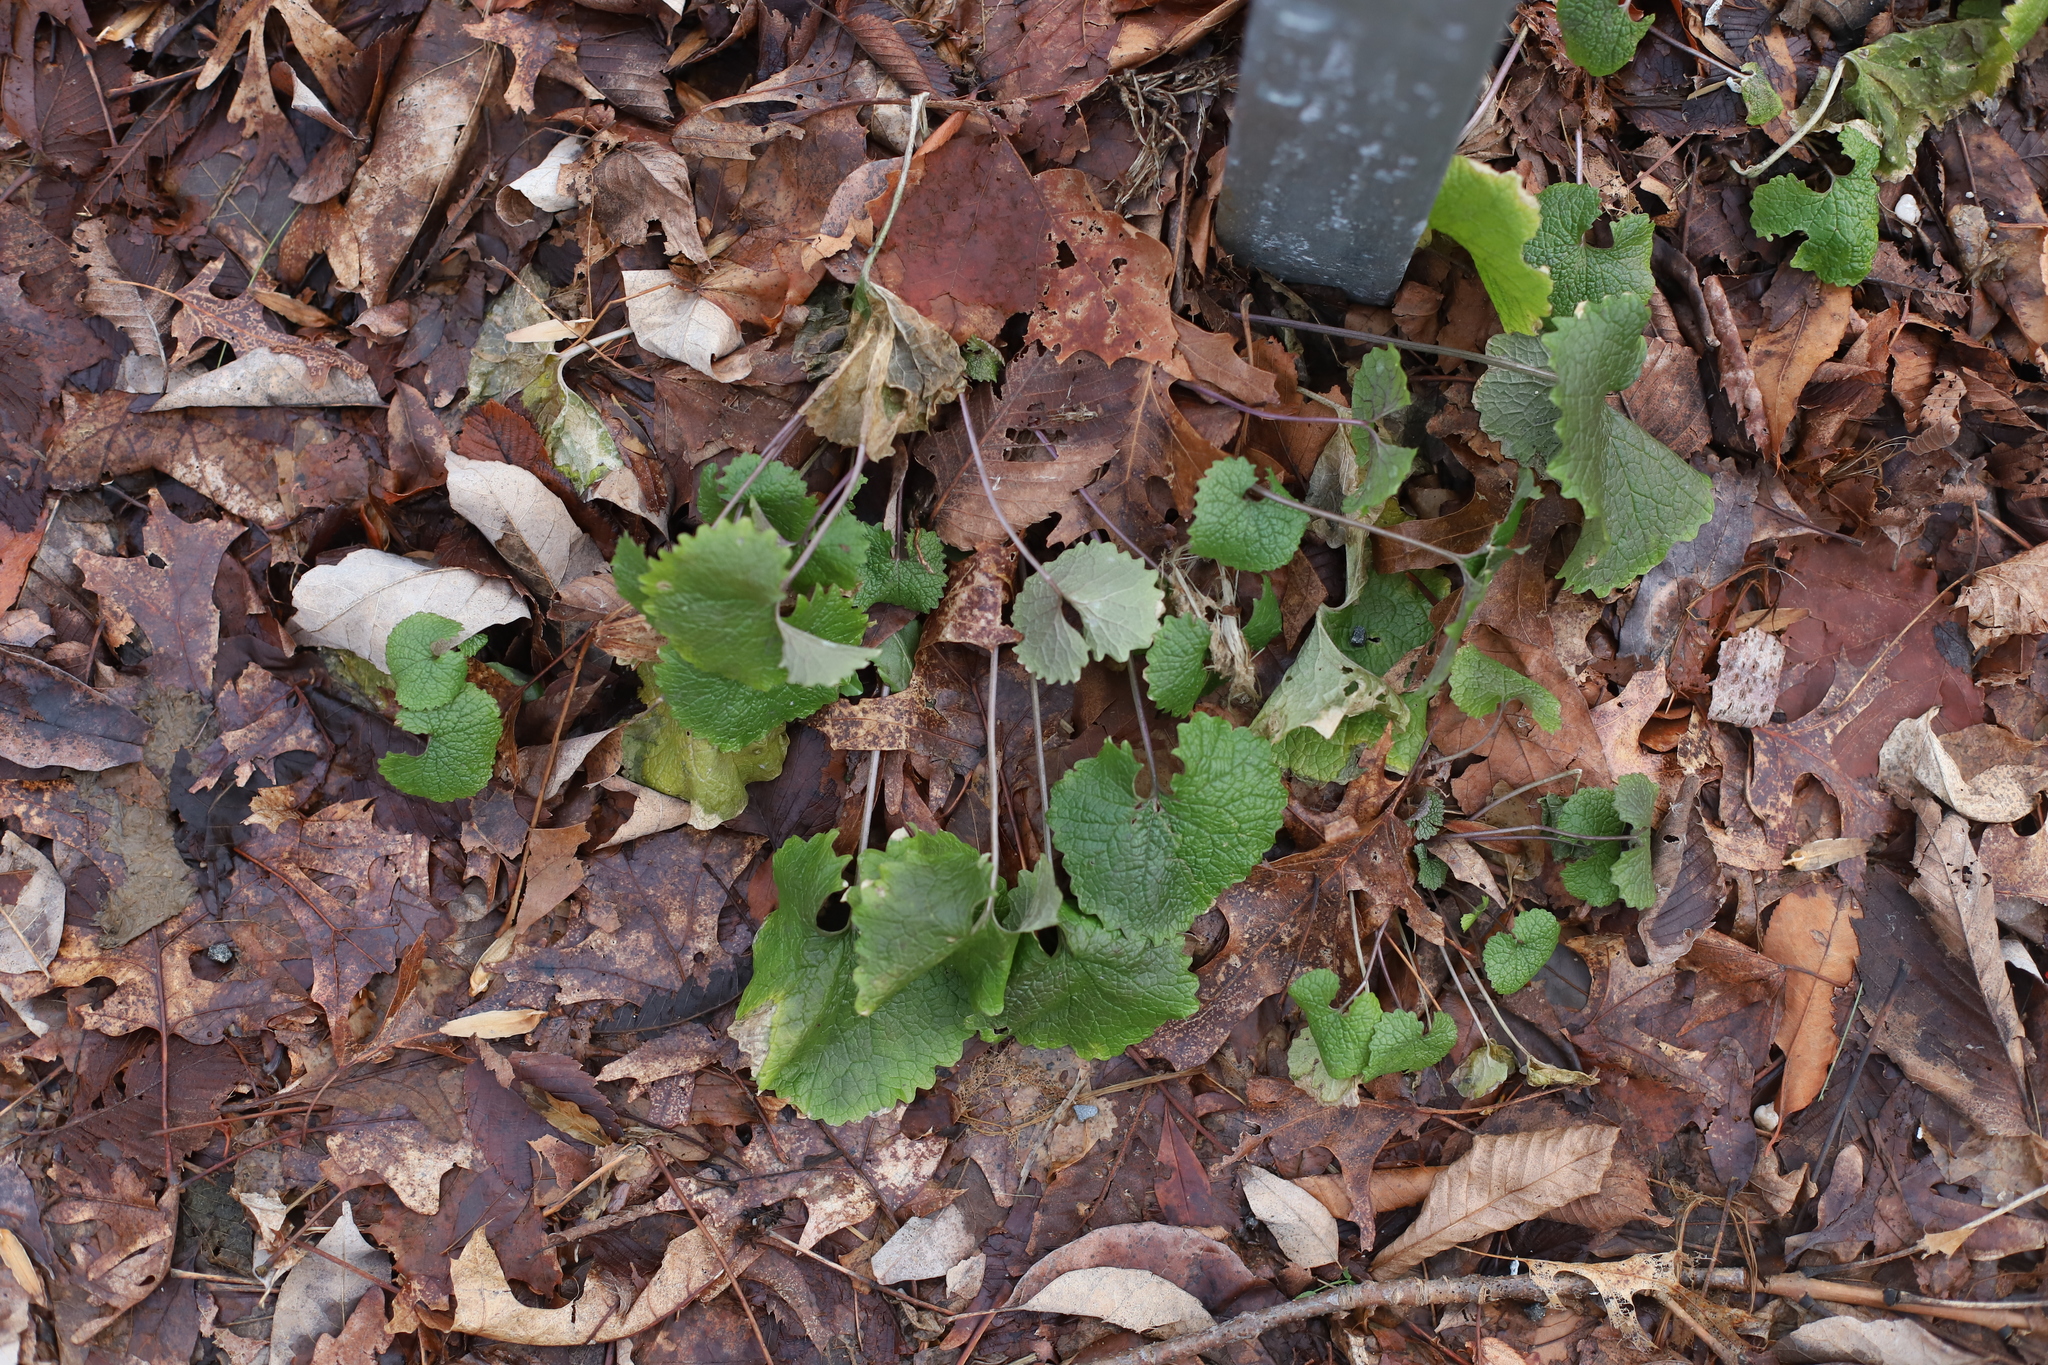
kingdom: Plantae
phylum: Tracheophyta
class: Magnoliopsida
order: Brassicales
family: Brassicaceae
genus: Alliaria
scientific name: Alliaria petiolata
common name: Garlic mustard
